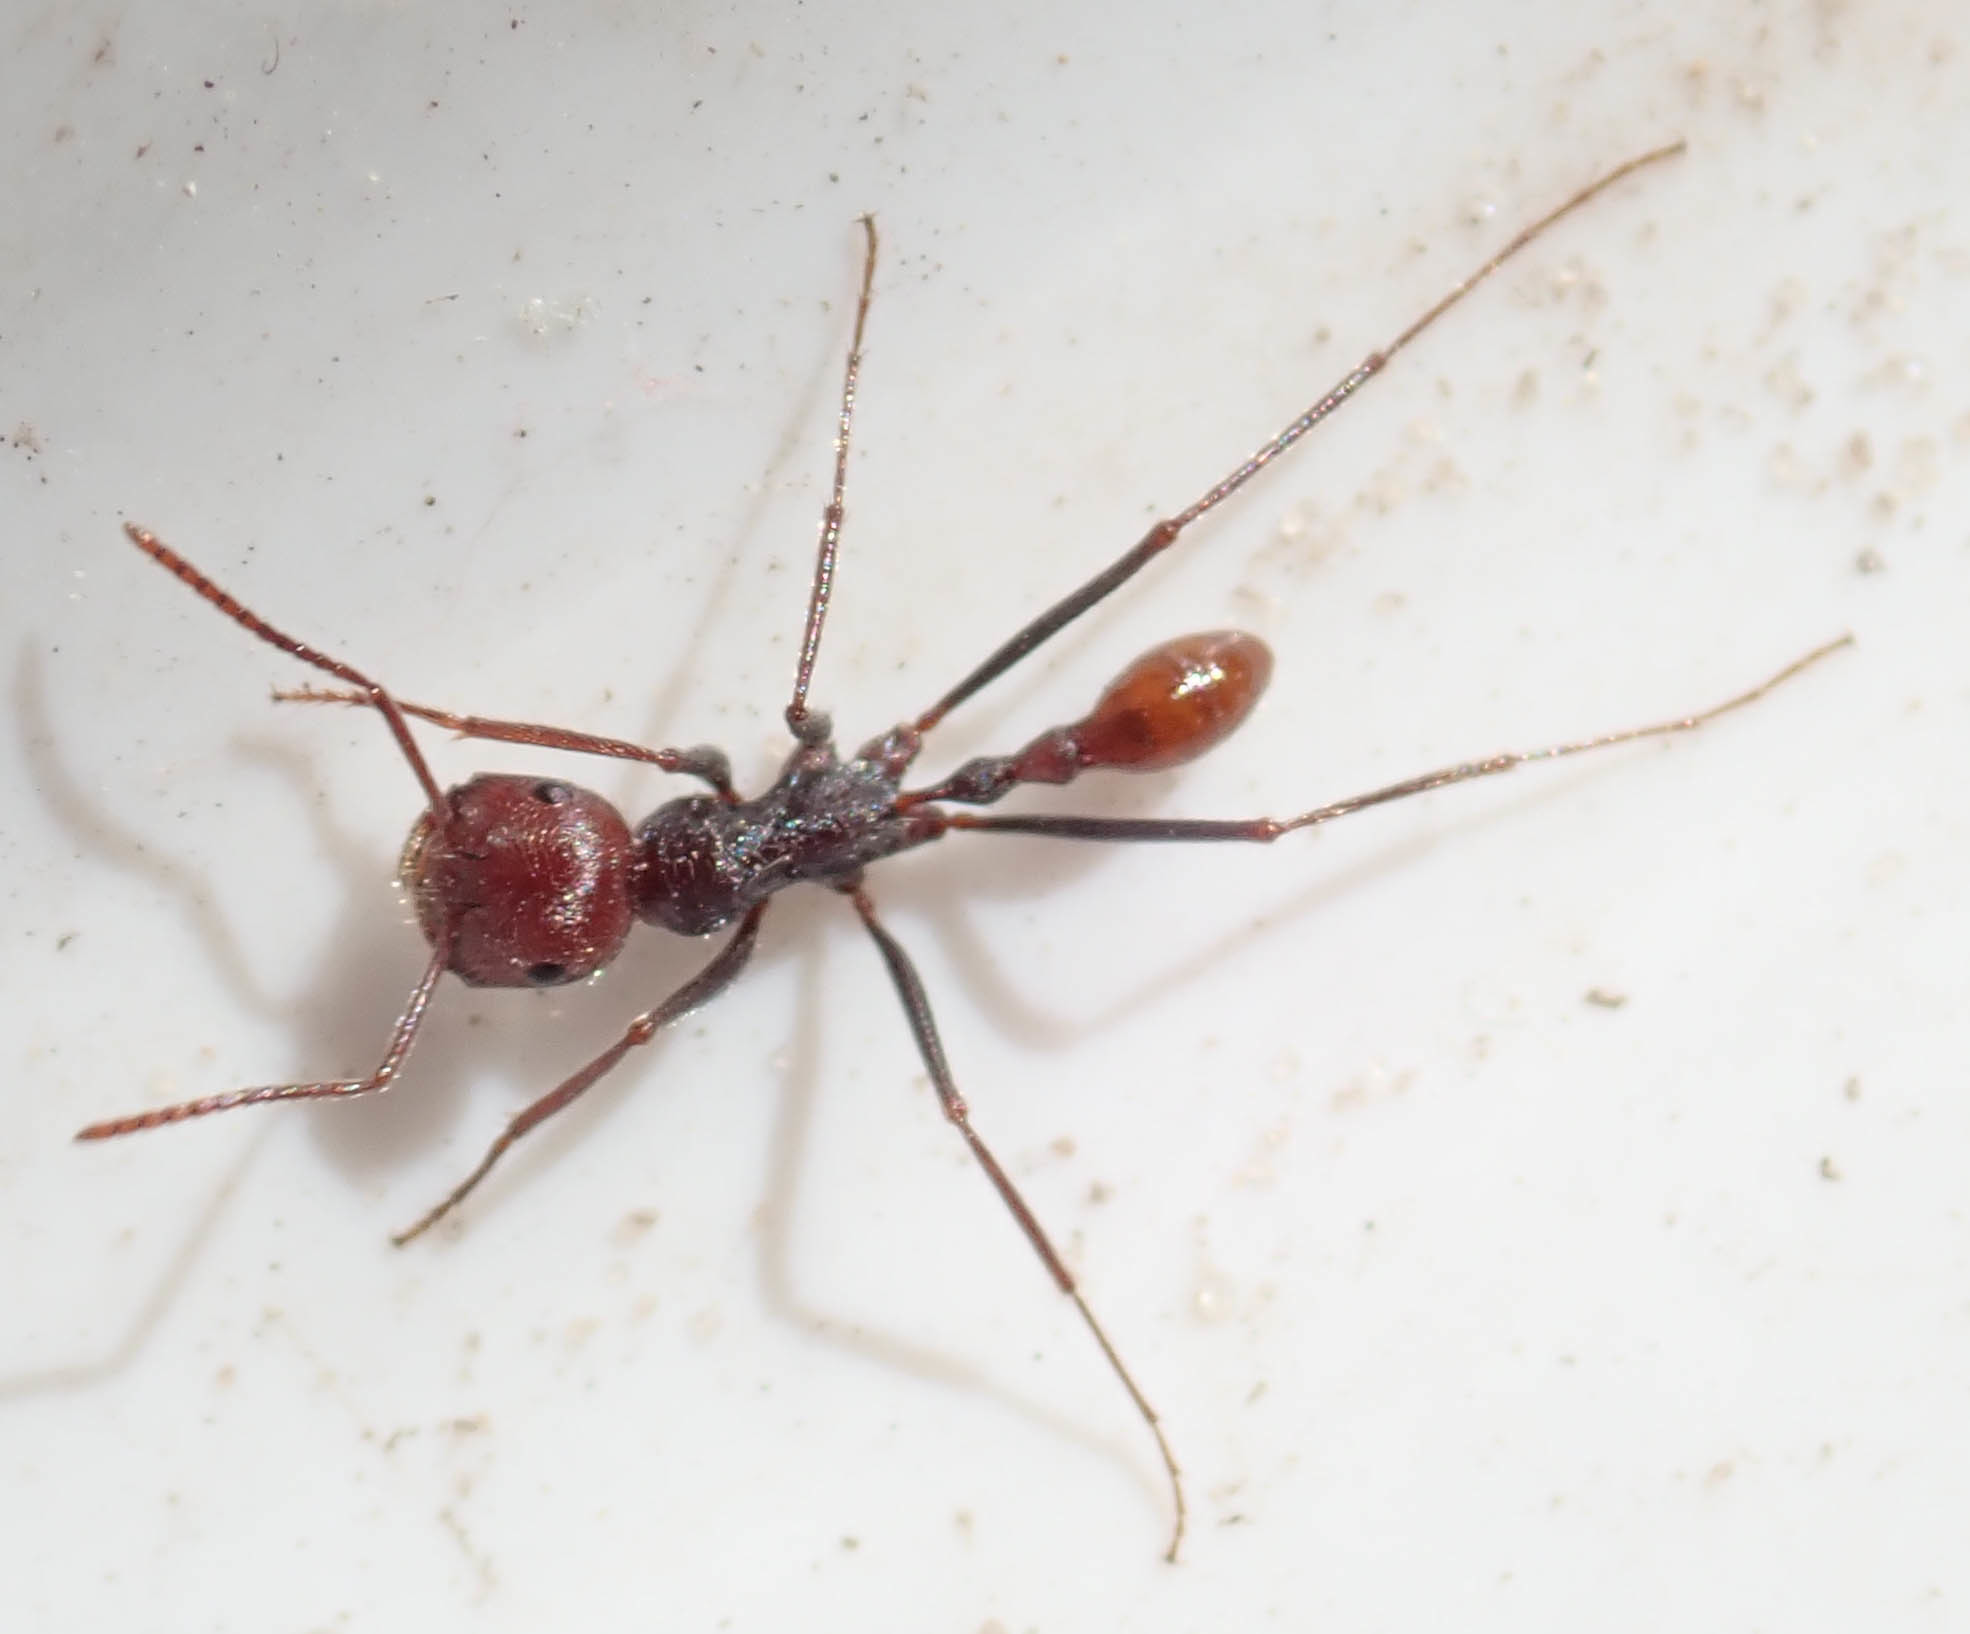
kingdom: Animalia
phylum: Arthropoda
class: Insecta
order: Hymenoptera
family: Formicidae
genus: Ocymyrmex
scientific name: Ocymyrmex velox
